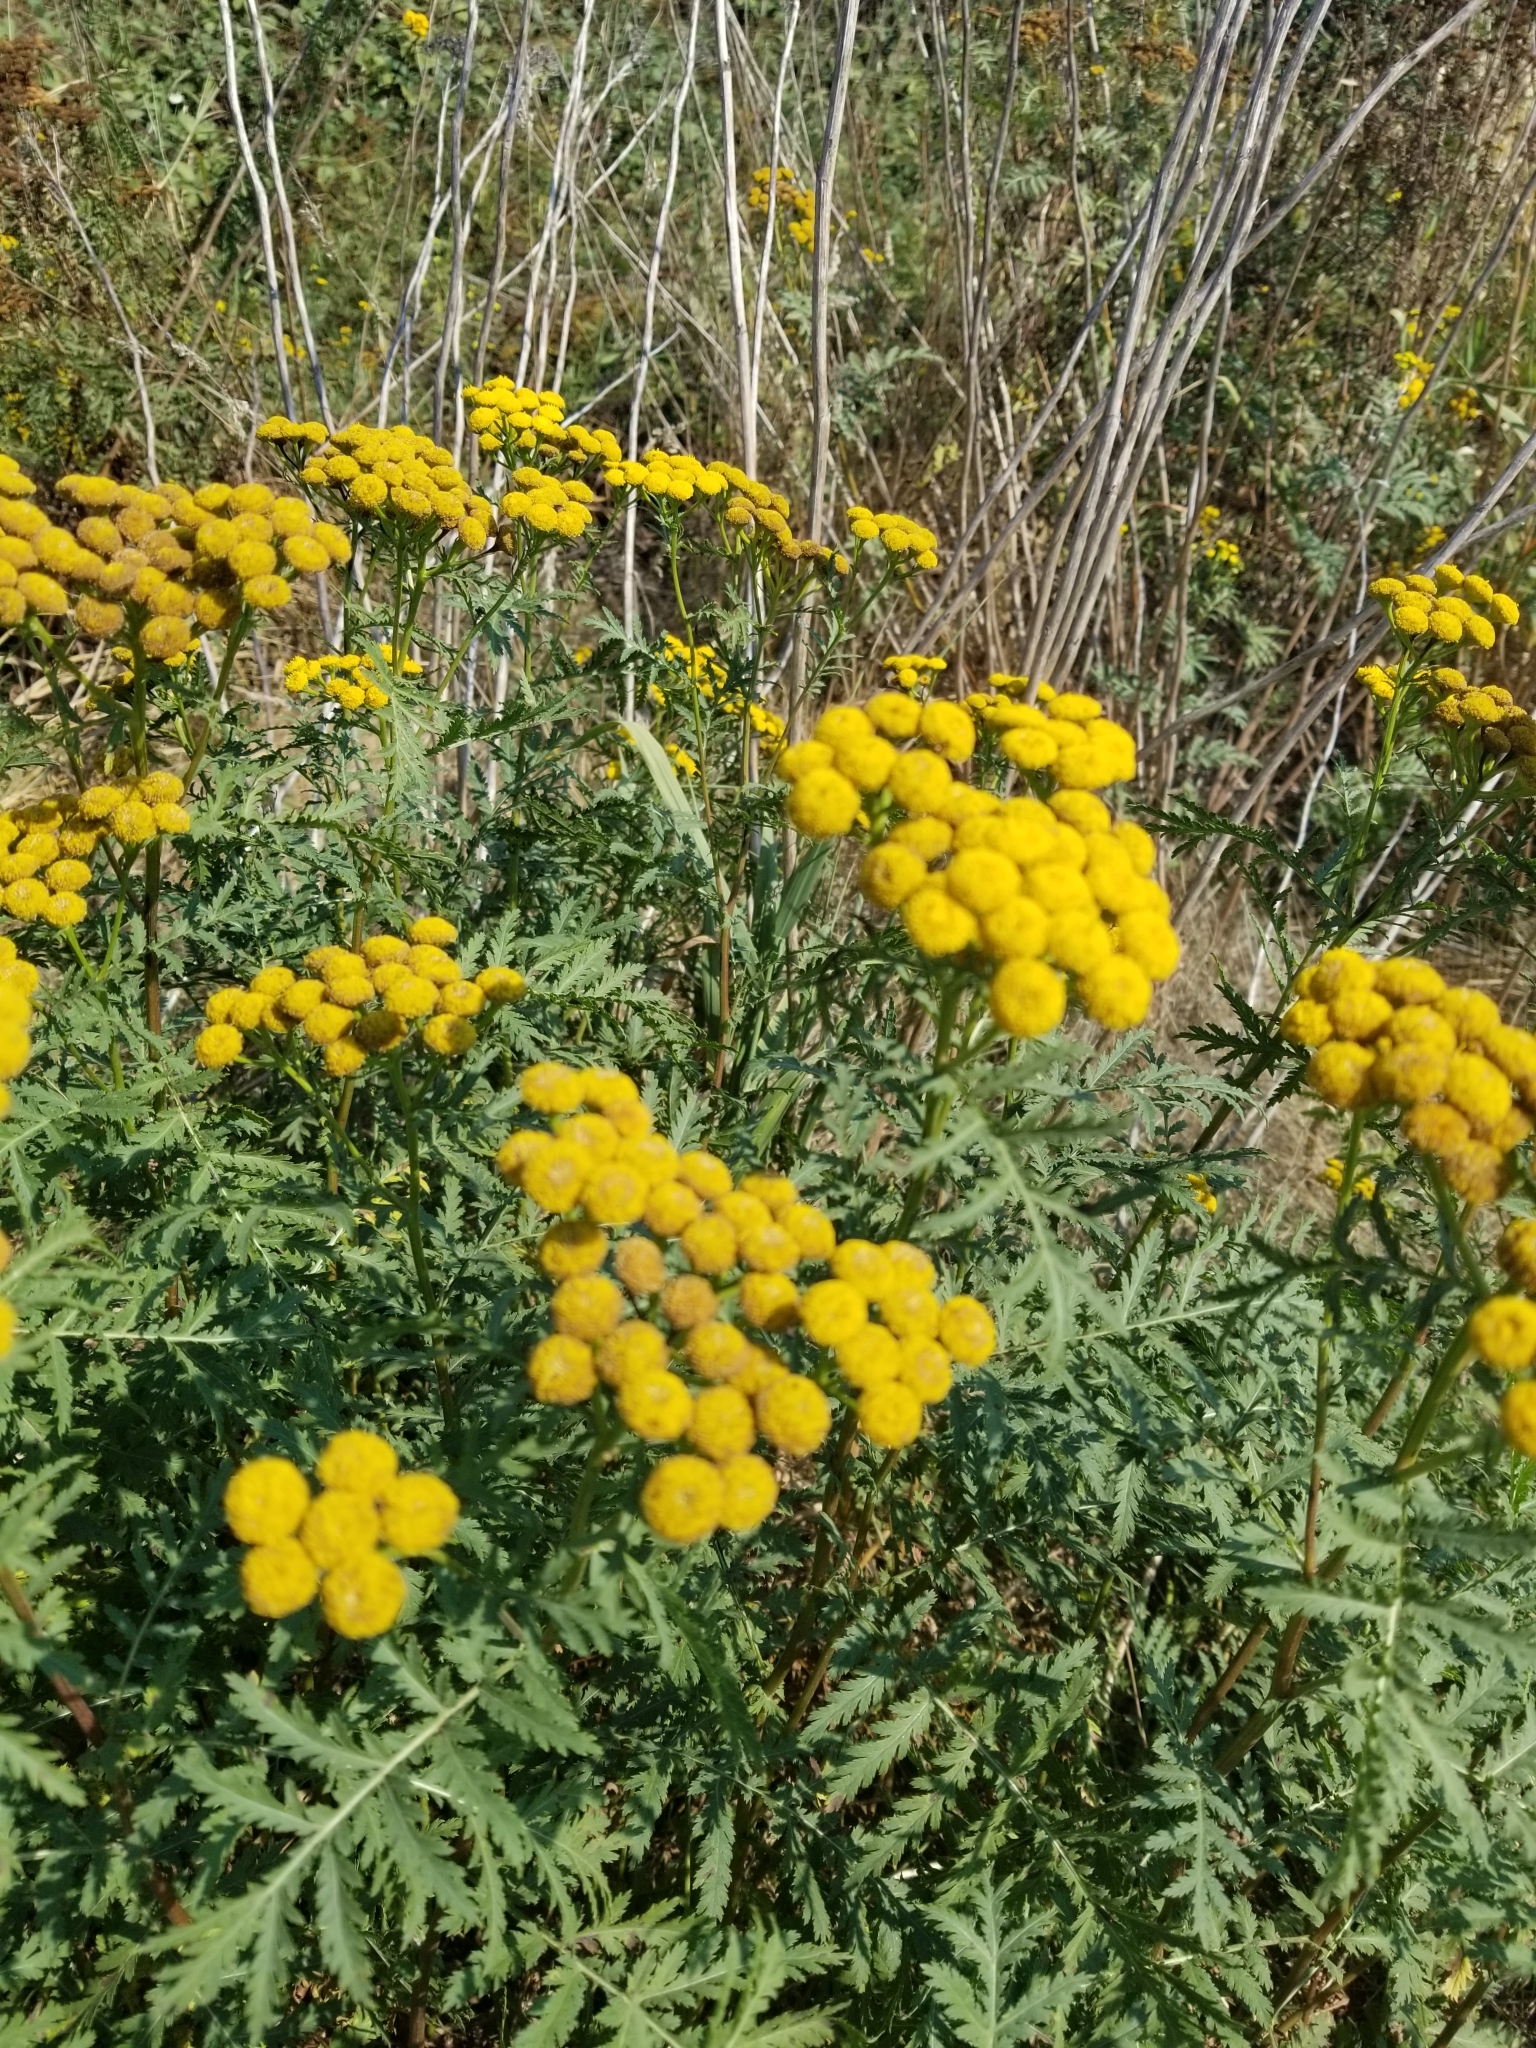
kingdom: Plantae
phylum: Tracheophyta
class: Magnoliopsida
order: Asterales
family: Asteraceae
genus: Tanacetum
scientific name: Tanacetum vulgare
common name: Common tansy
